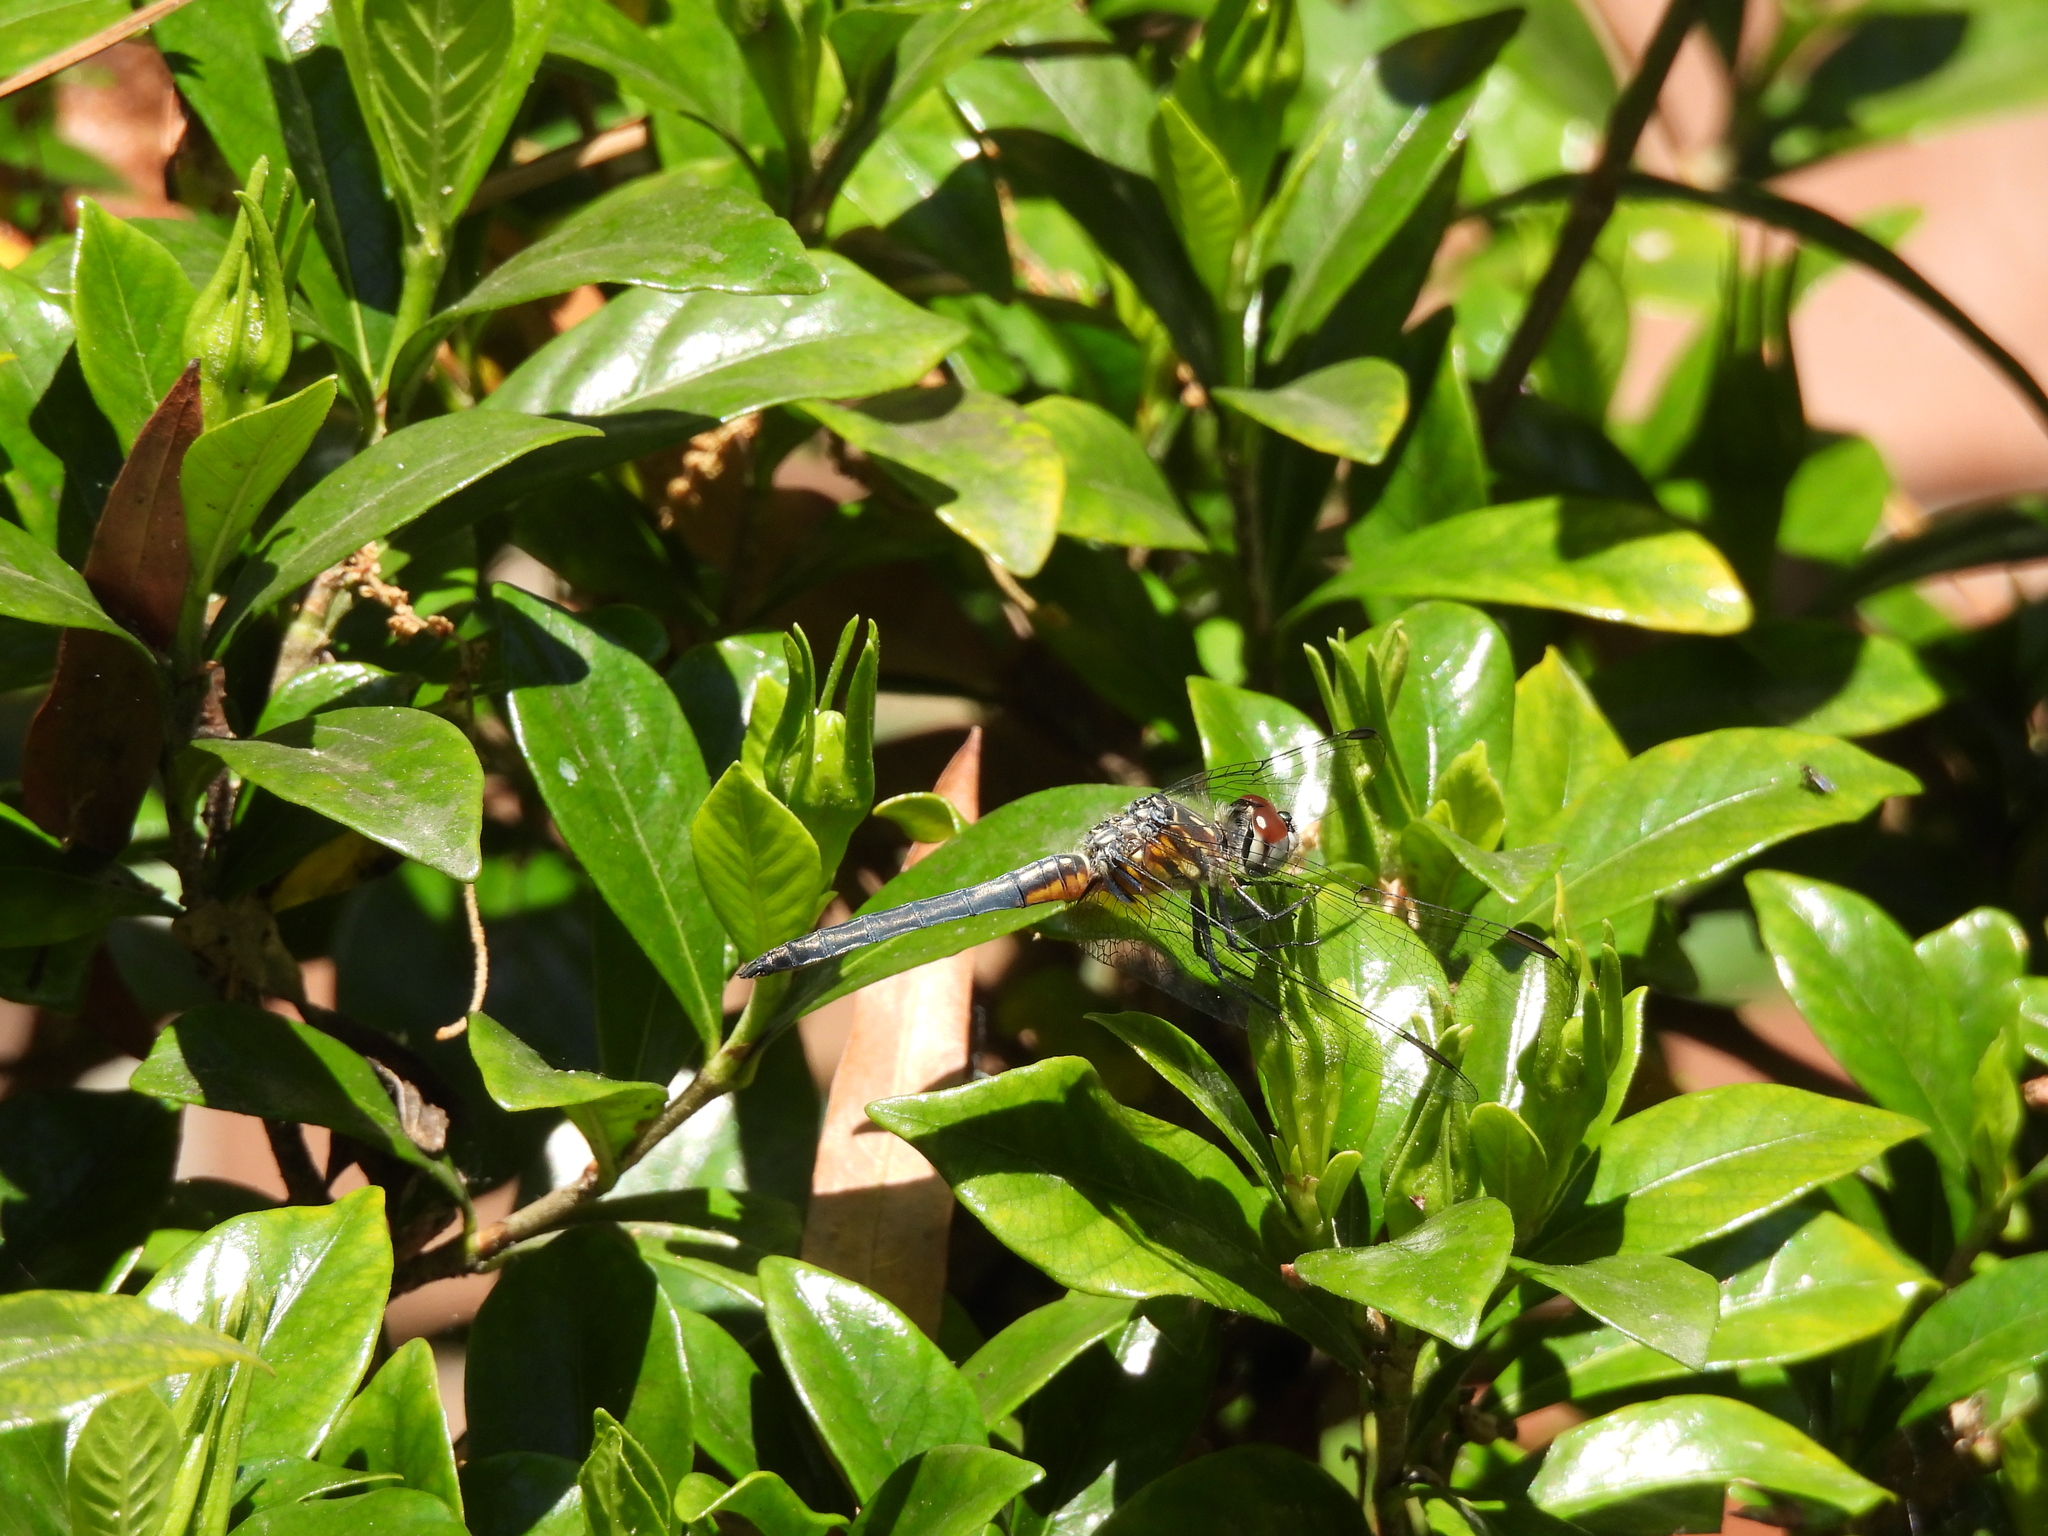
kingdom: Animalia
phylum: Arthropoda
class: Insecta
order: Odonata
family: Libellulidae
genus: Pachydiplax
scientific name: Pachydiplax longipennis
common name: Blue dasher
